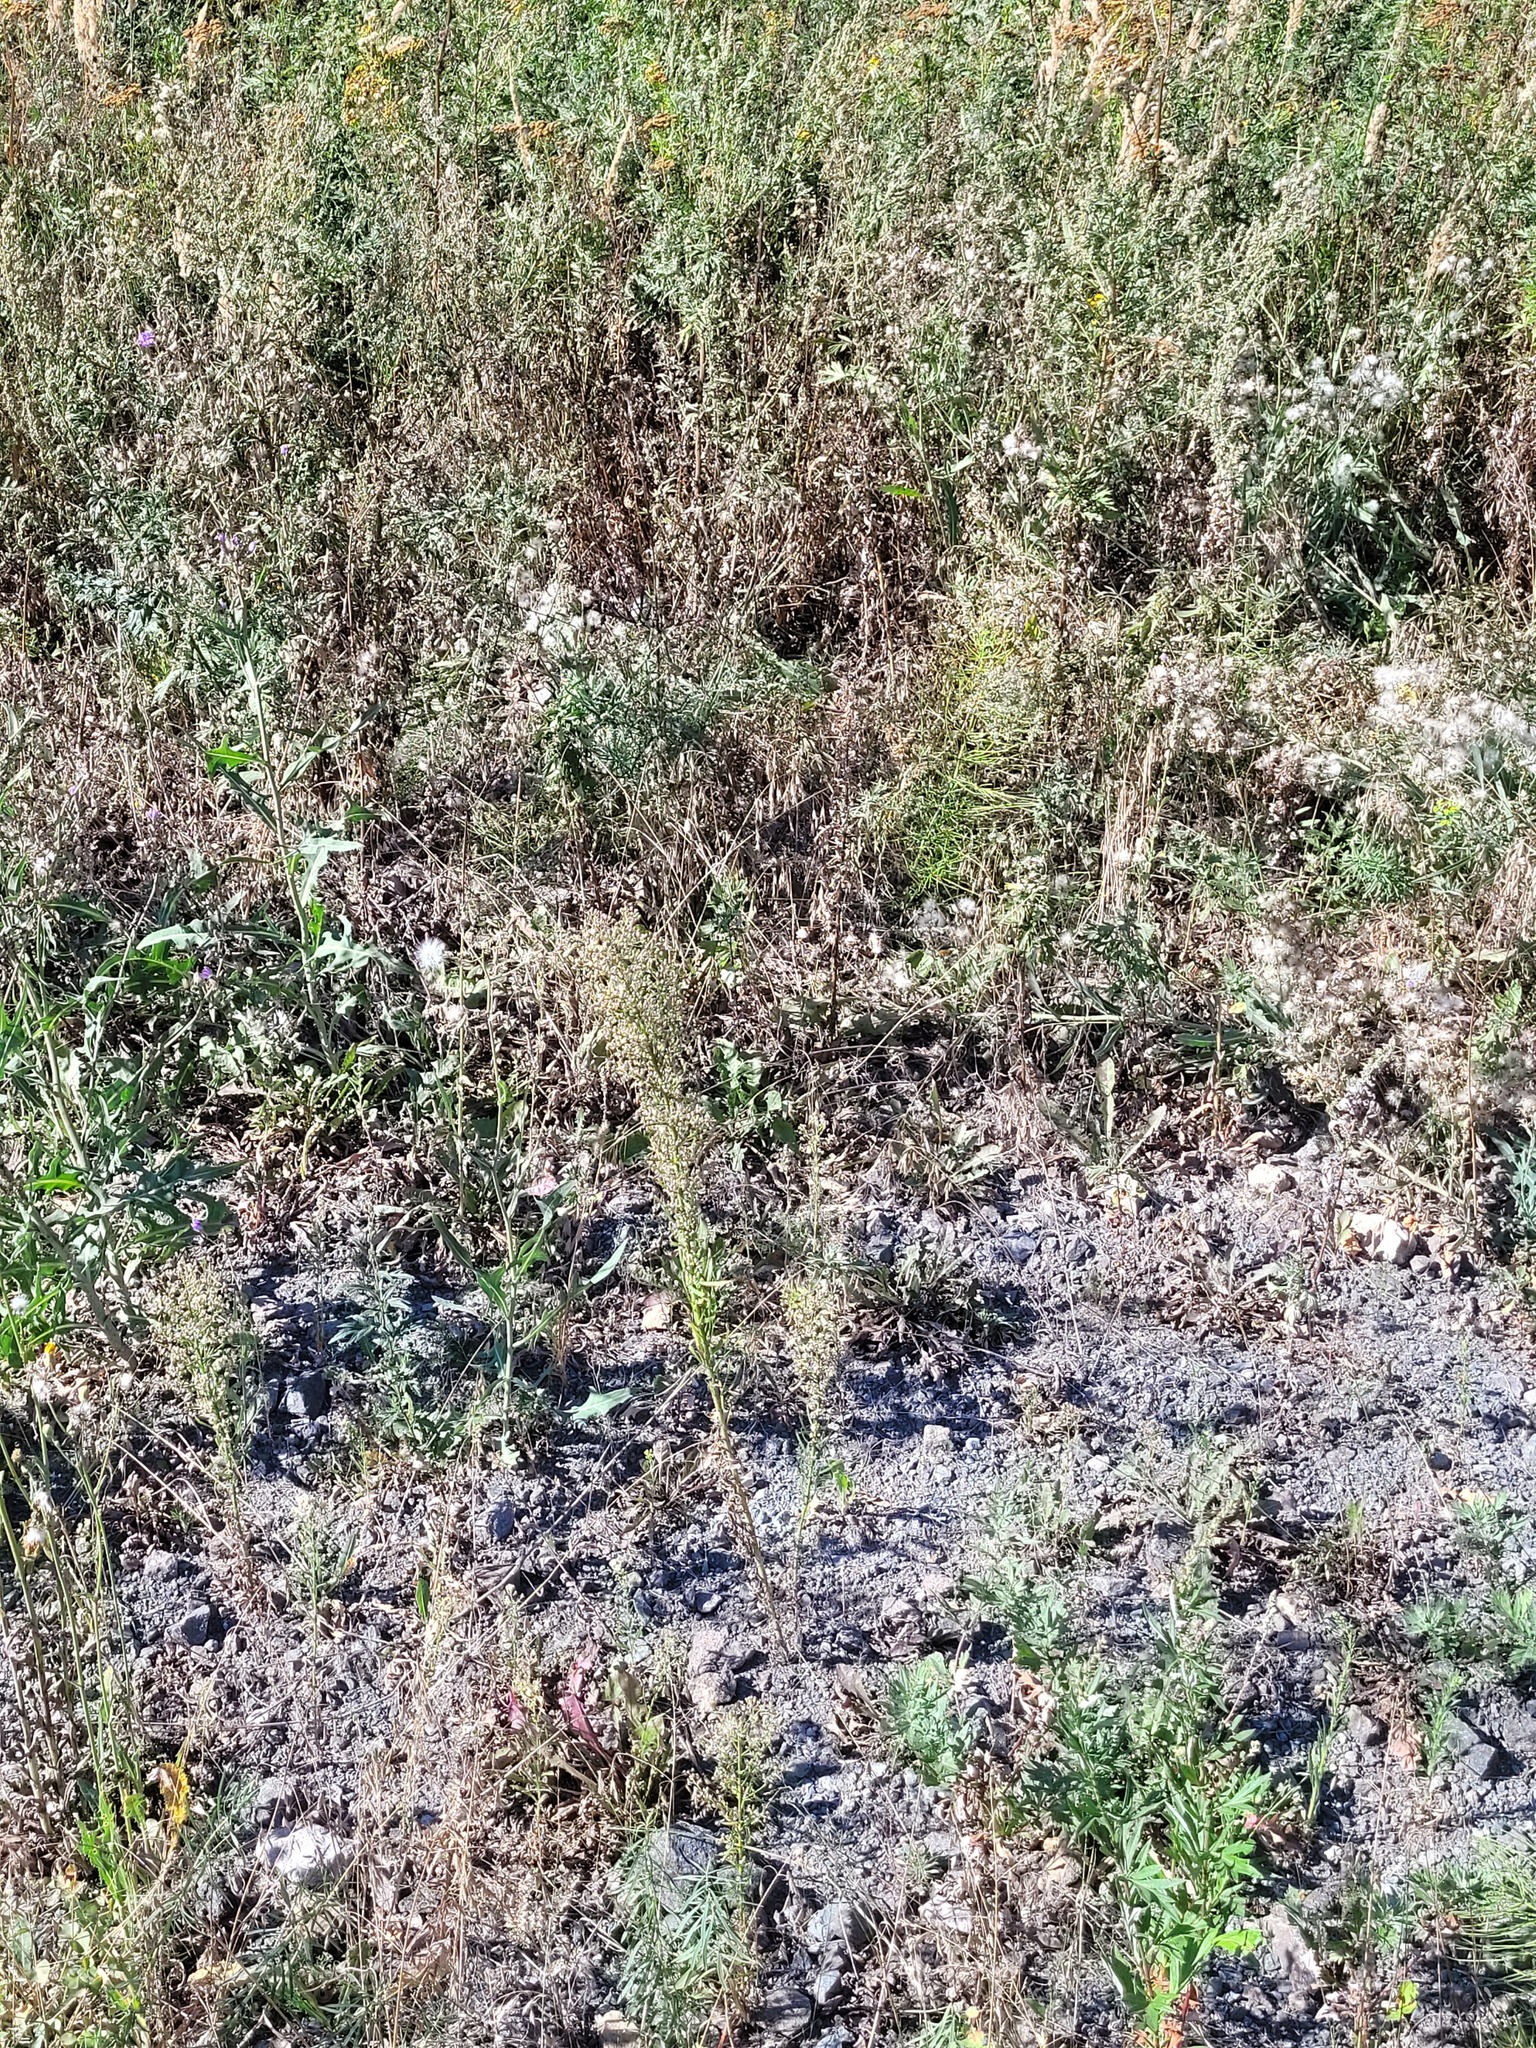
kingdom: Plantae
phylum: Tracheophyta
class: Magnoliopsida
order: Asterales
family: Asteraceae
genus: Erigeron
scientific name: Erigeron canadensis
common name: Canadian fleabane
